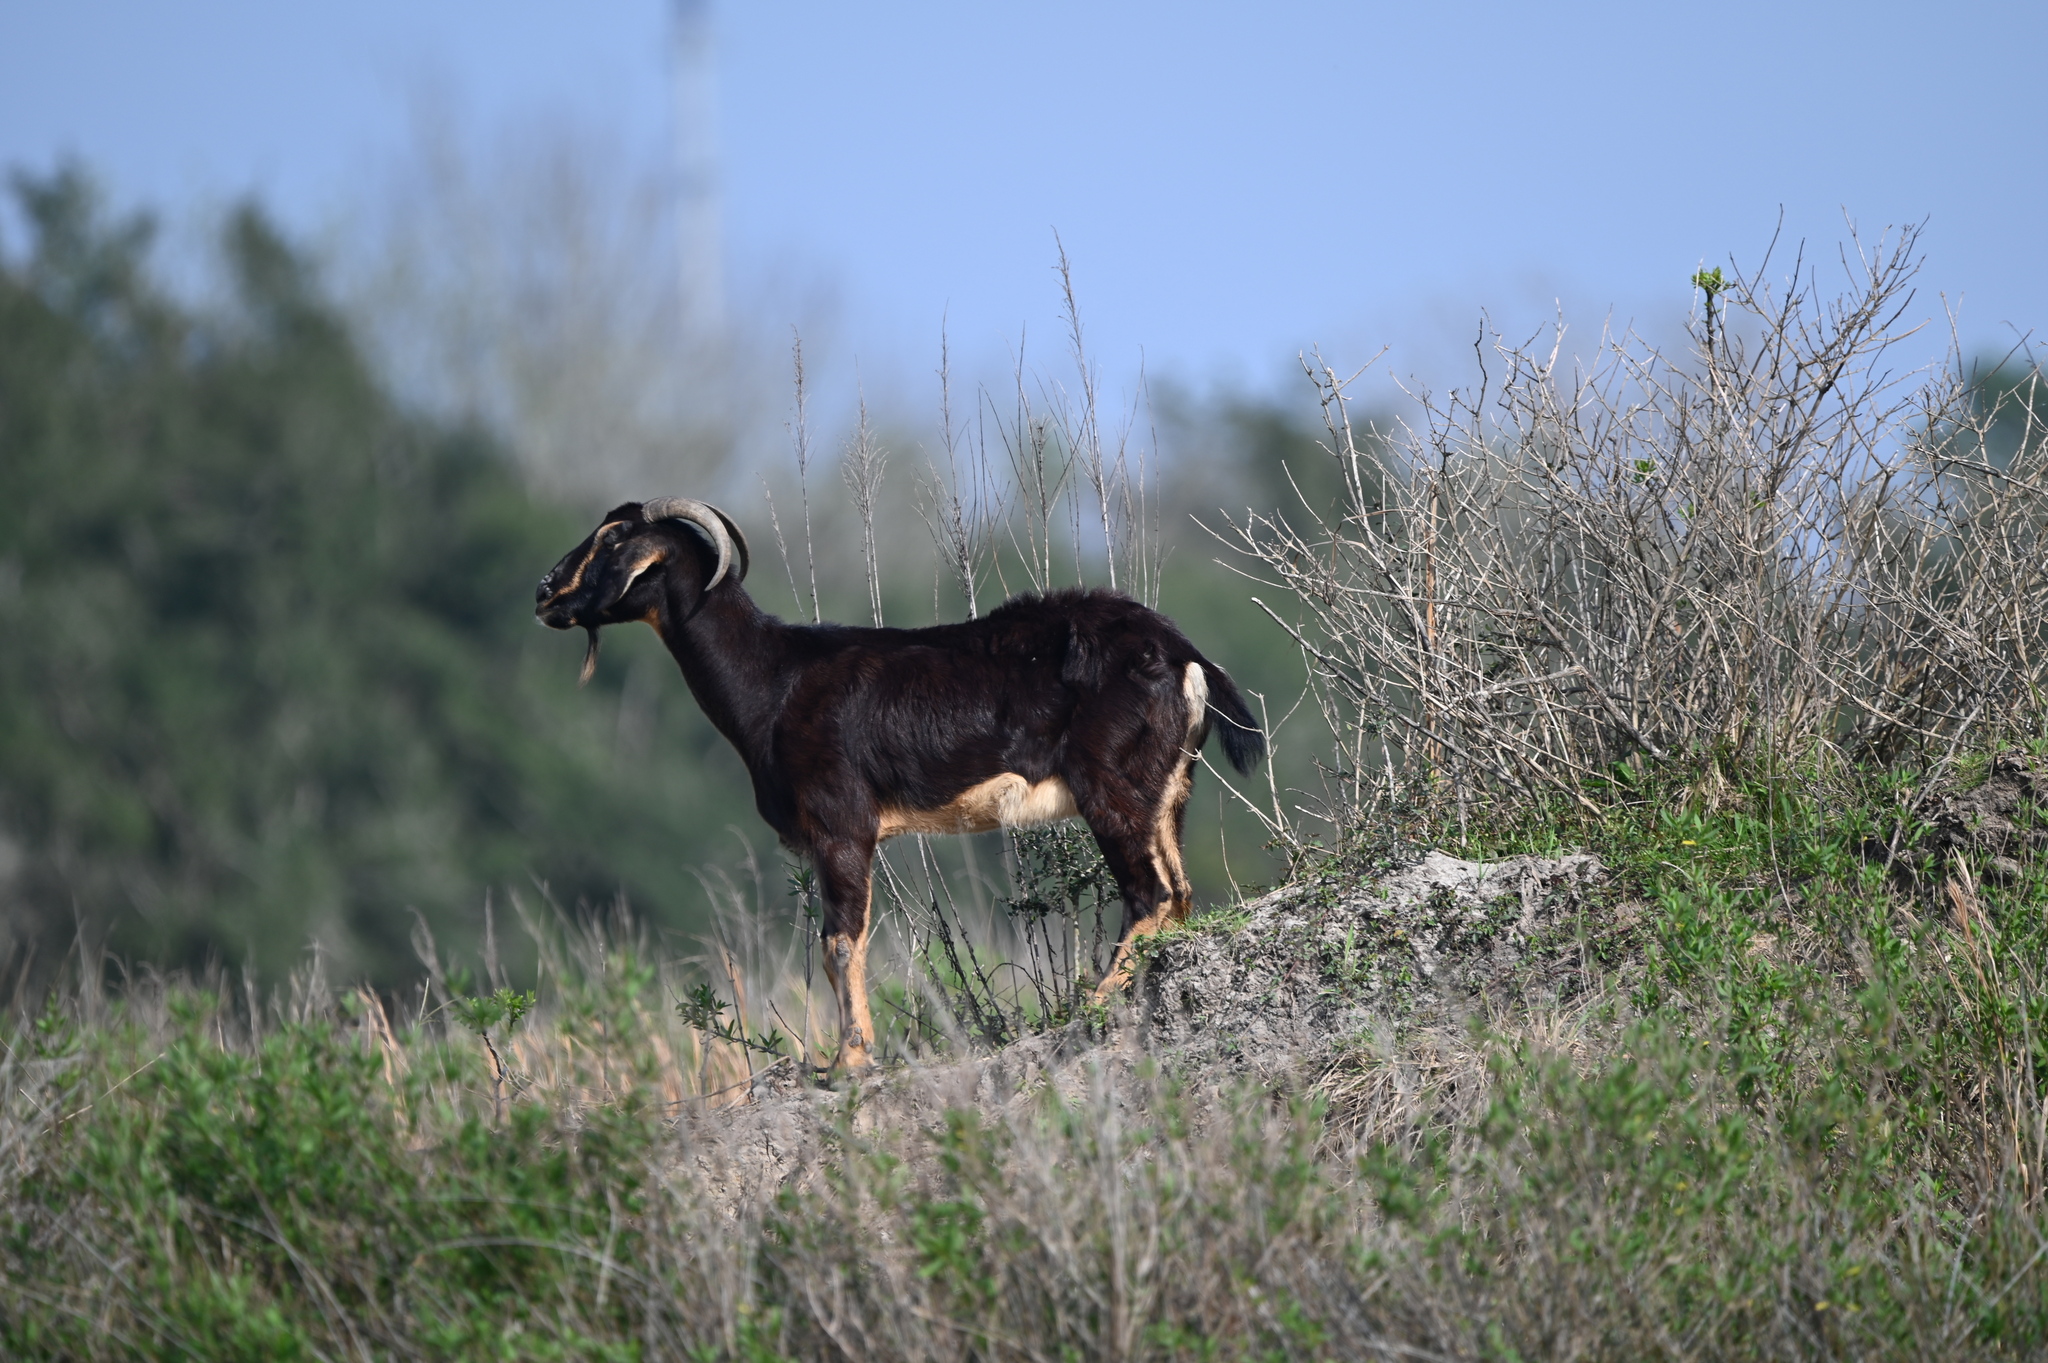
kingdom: Animalia
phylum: Chordata
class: Mammalia
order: Artiodactyla
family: Bovidae
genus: Capra
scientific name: Capra hircus
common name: Domestic goat
